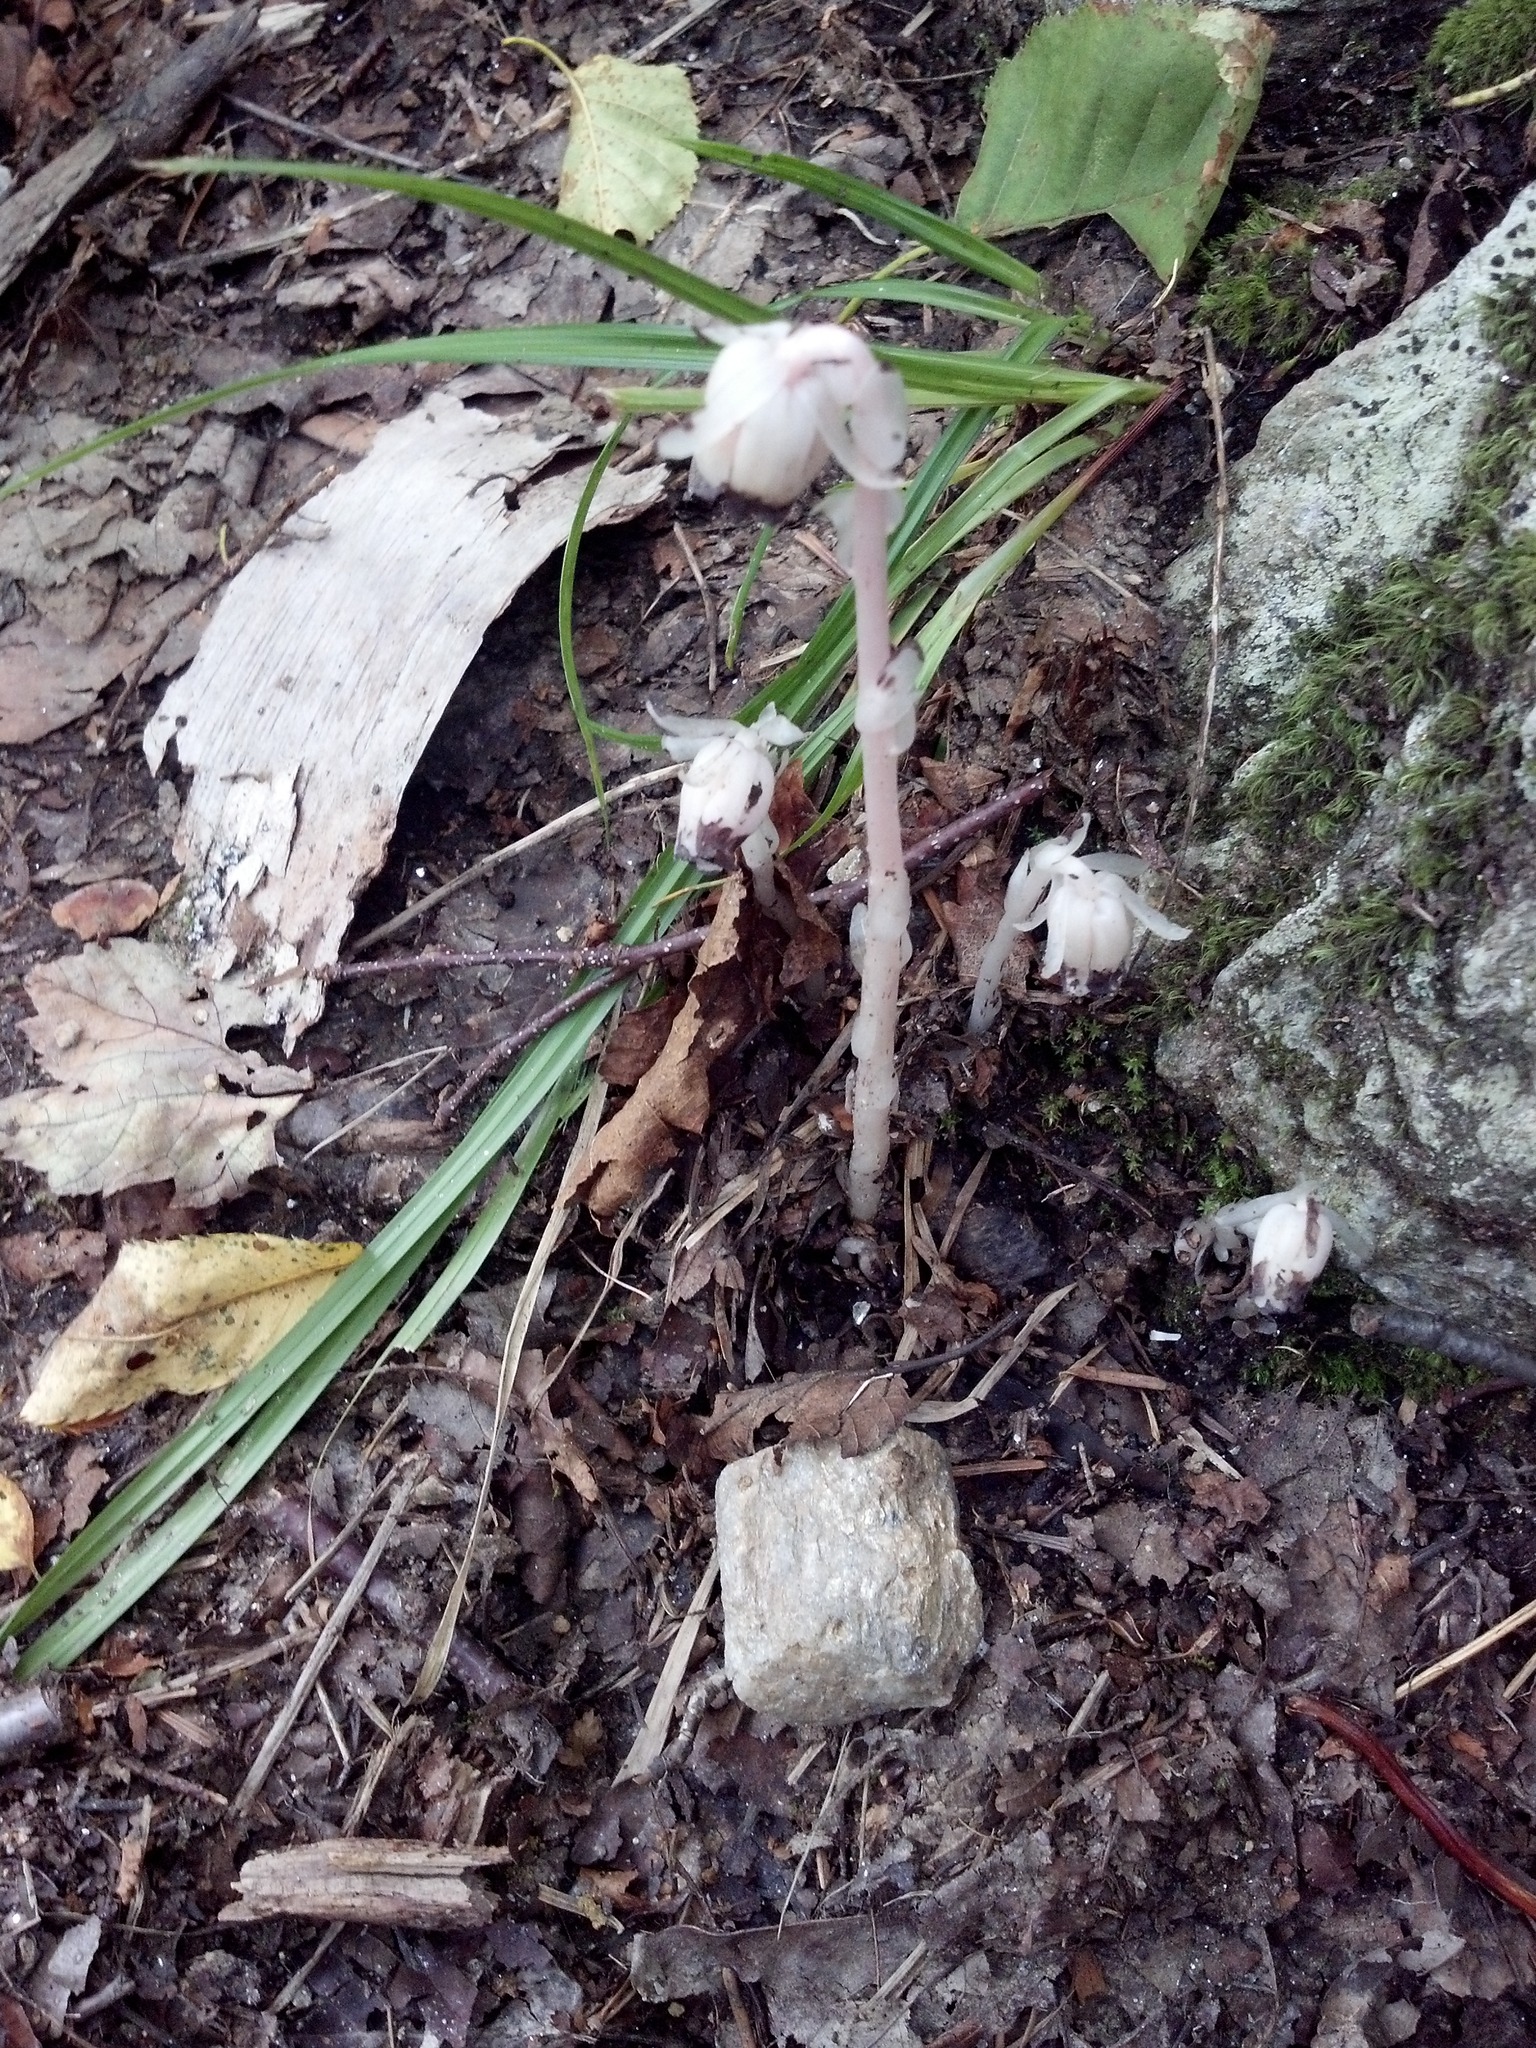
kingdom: Plantae
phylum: Tracheophyta
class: Magnoliopsida
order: Ericales
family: Ericaceae
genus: Monotropa
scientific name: Monotropa uniflora
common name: Convulsion root
